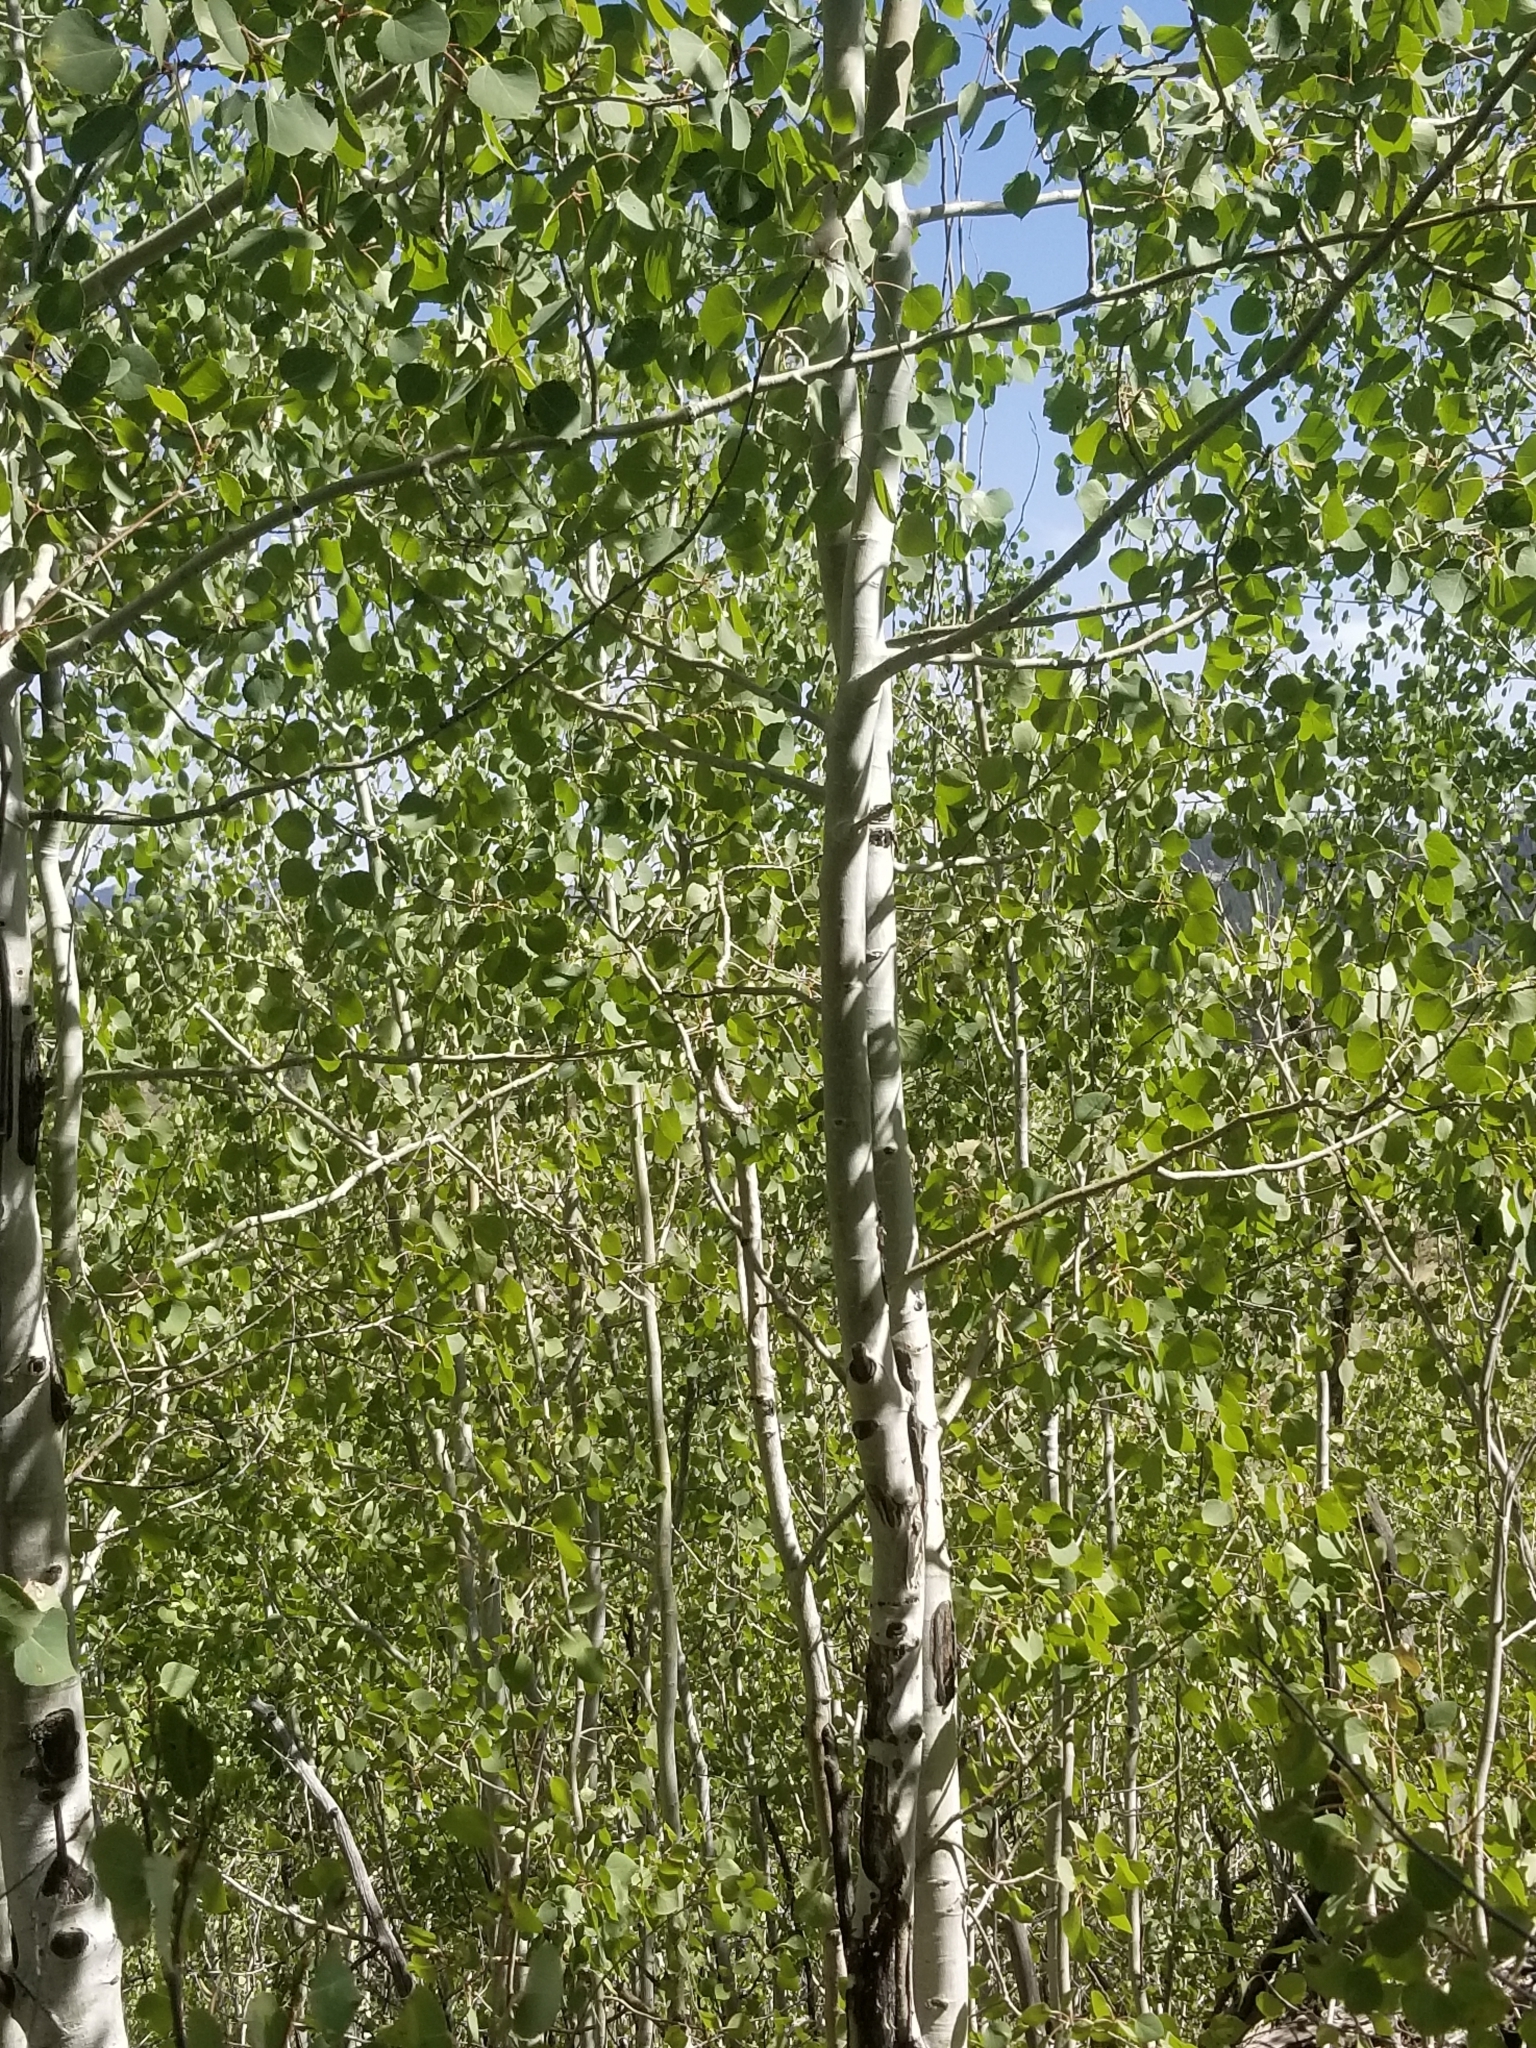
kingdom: Plantae
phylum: Tracheophyta
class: Magnoliopsida
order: Malpighiales
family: Salicaceae
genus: Populus
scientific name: Populus tremuloides
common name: Quaking aspen
